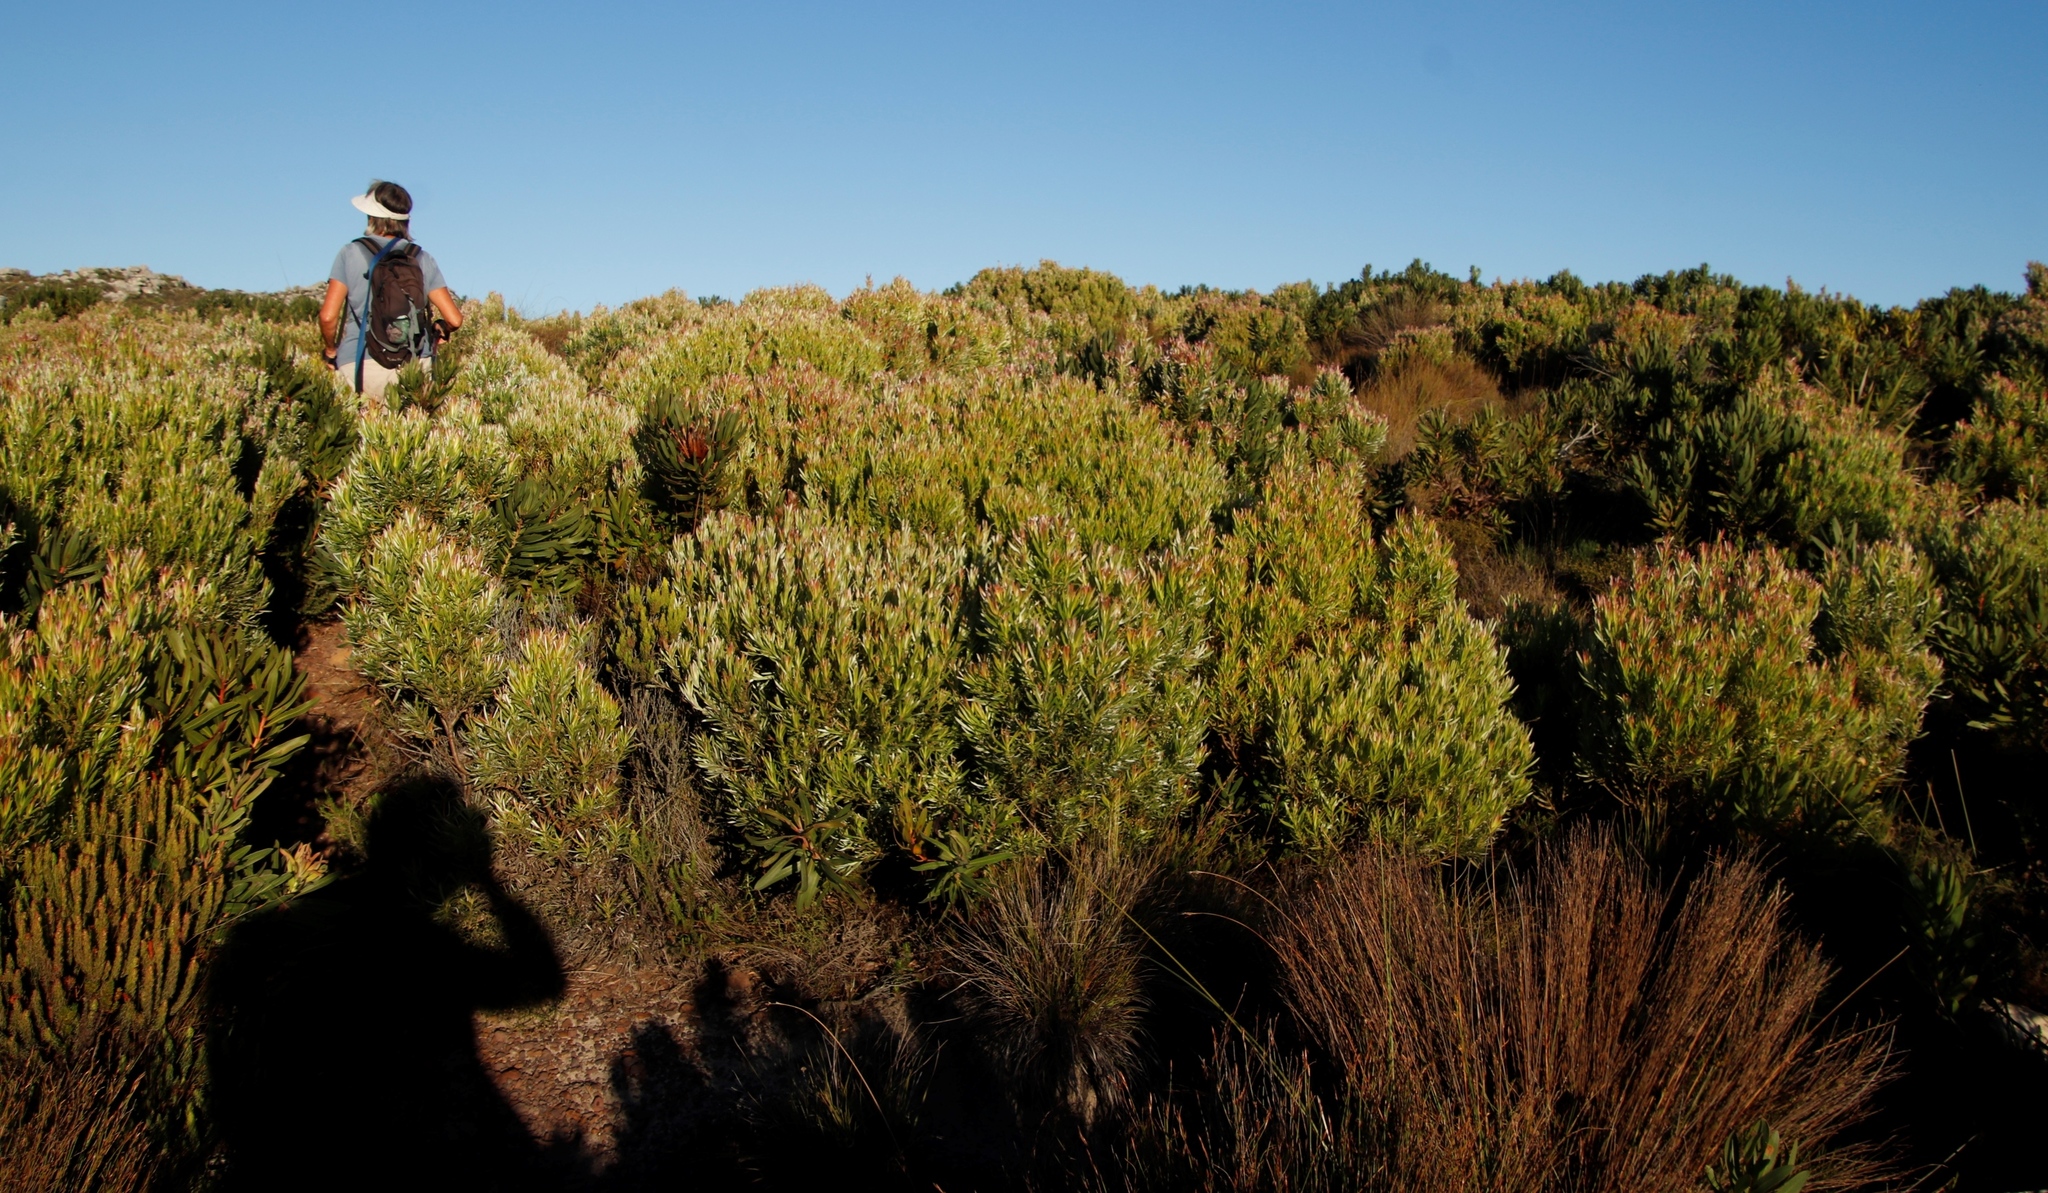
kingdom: Plantae
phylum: Tracheophyta
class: Magnoliopsida
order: Proteales
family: Proteaceae
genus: Leucadendron
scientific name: Leucadendron xanthoconus
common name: Sickle-leaf conebush
